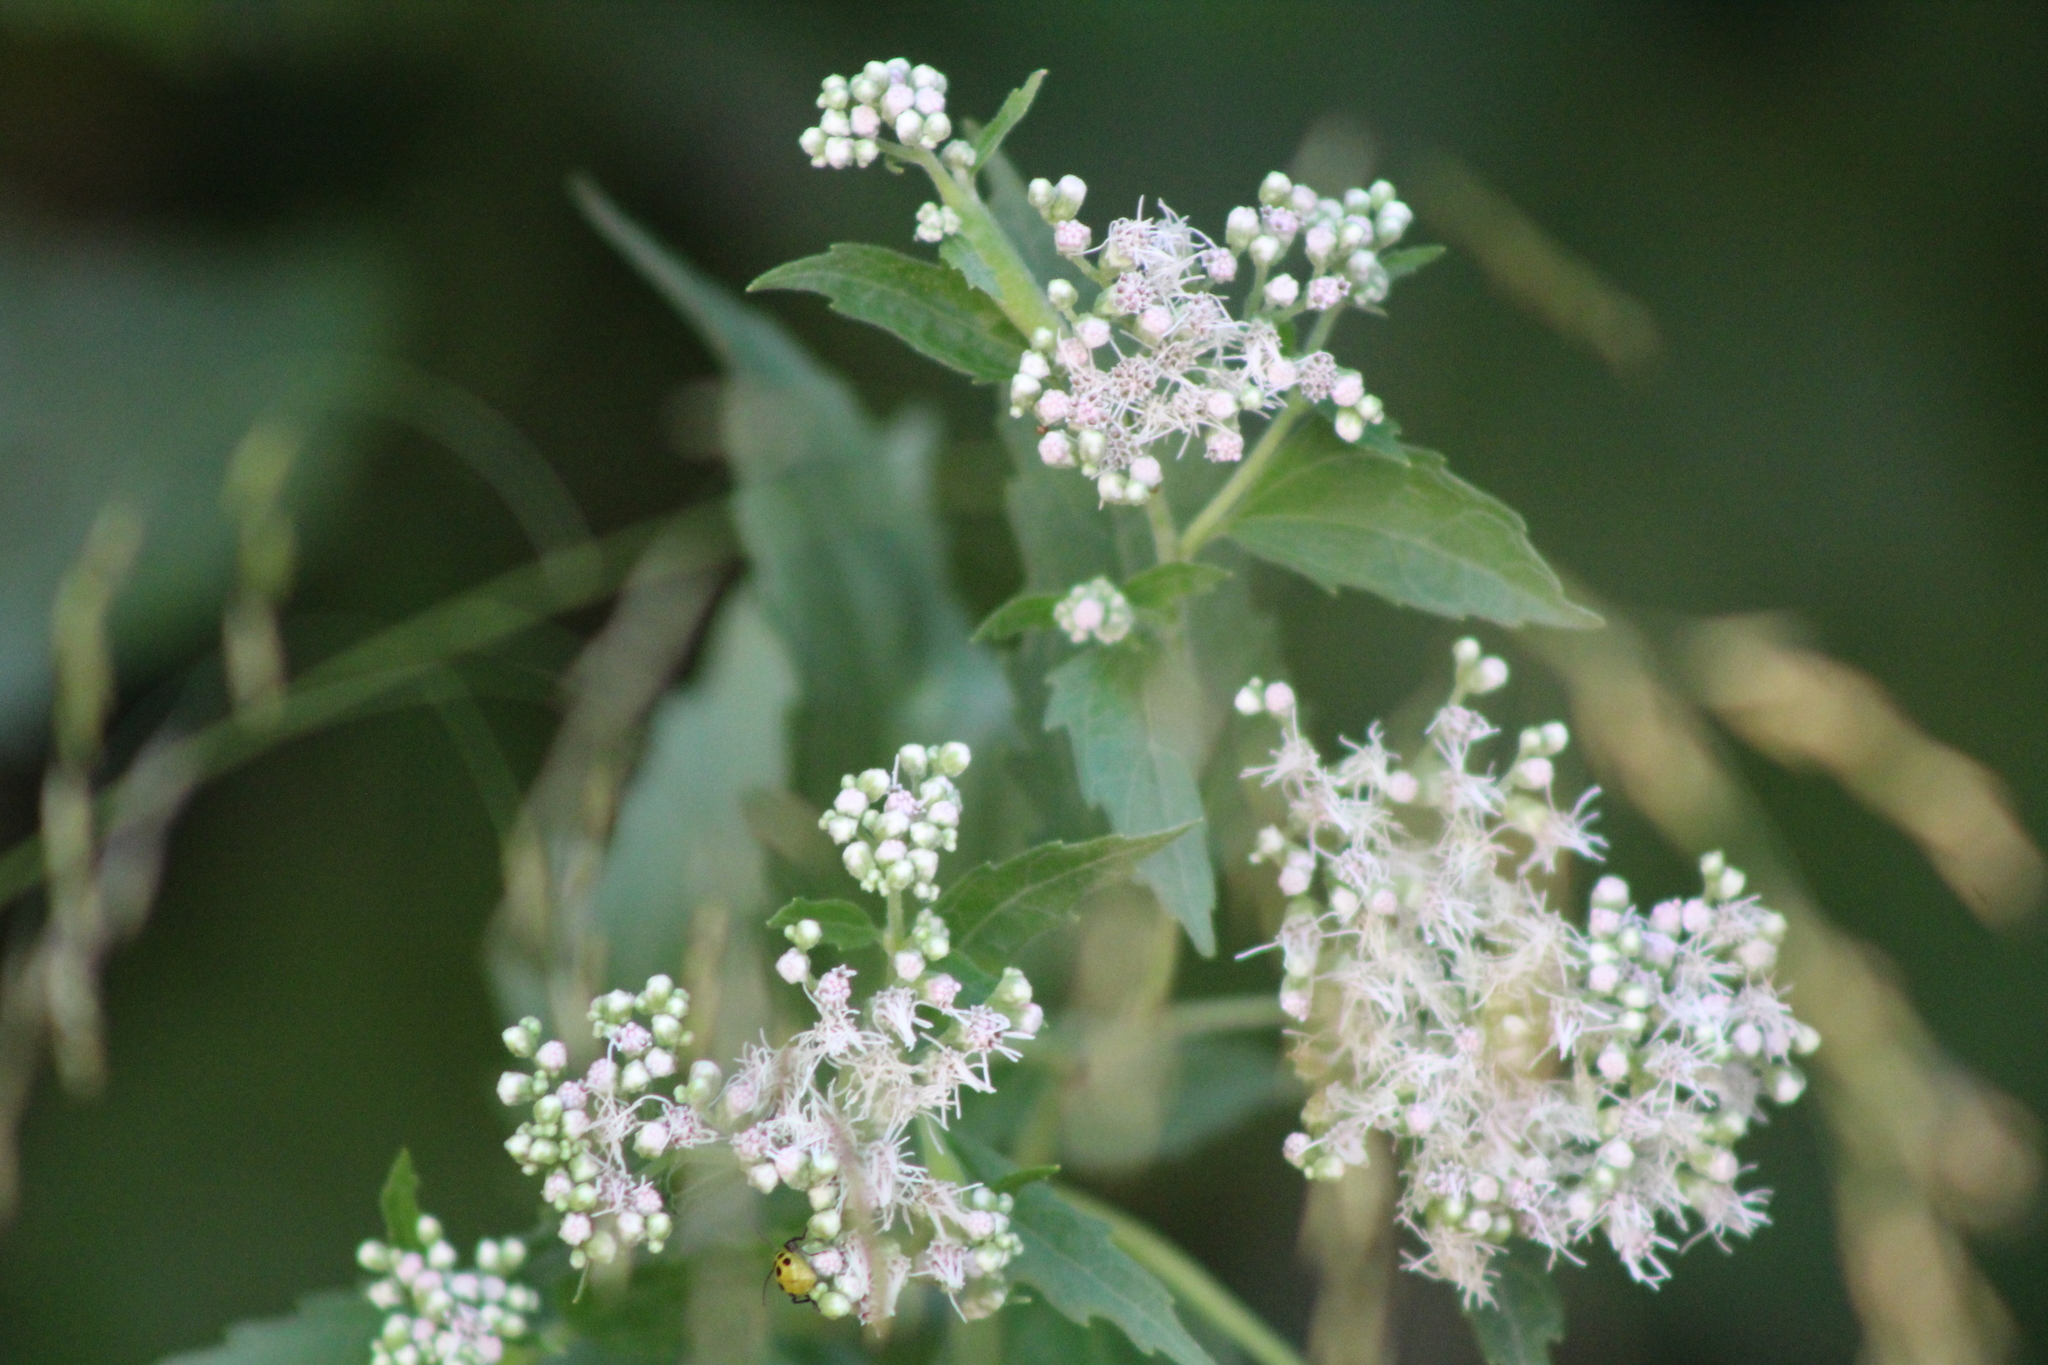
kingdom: Plantae
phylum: Tracheophyta
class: Magnoliopsida
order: Asterales
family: Asteraceae
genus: Eupatorium
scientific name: Eupatorium serotinum
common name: Late boneset
